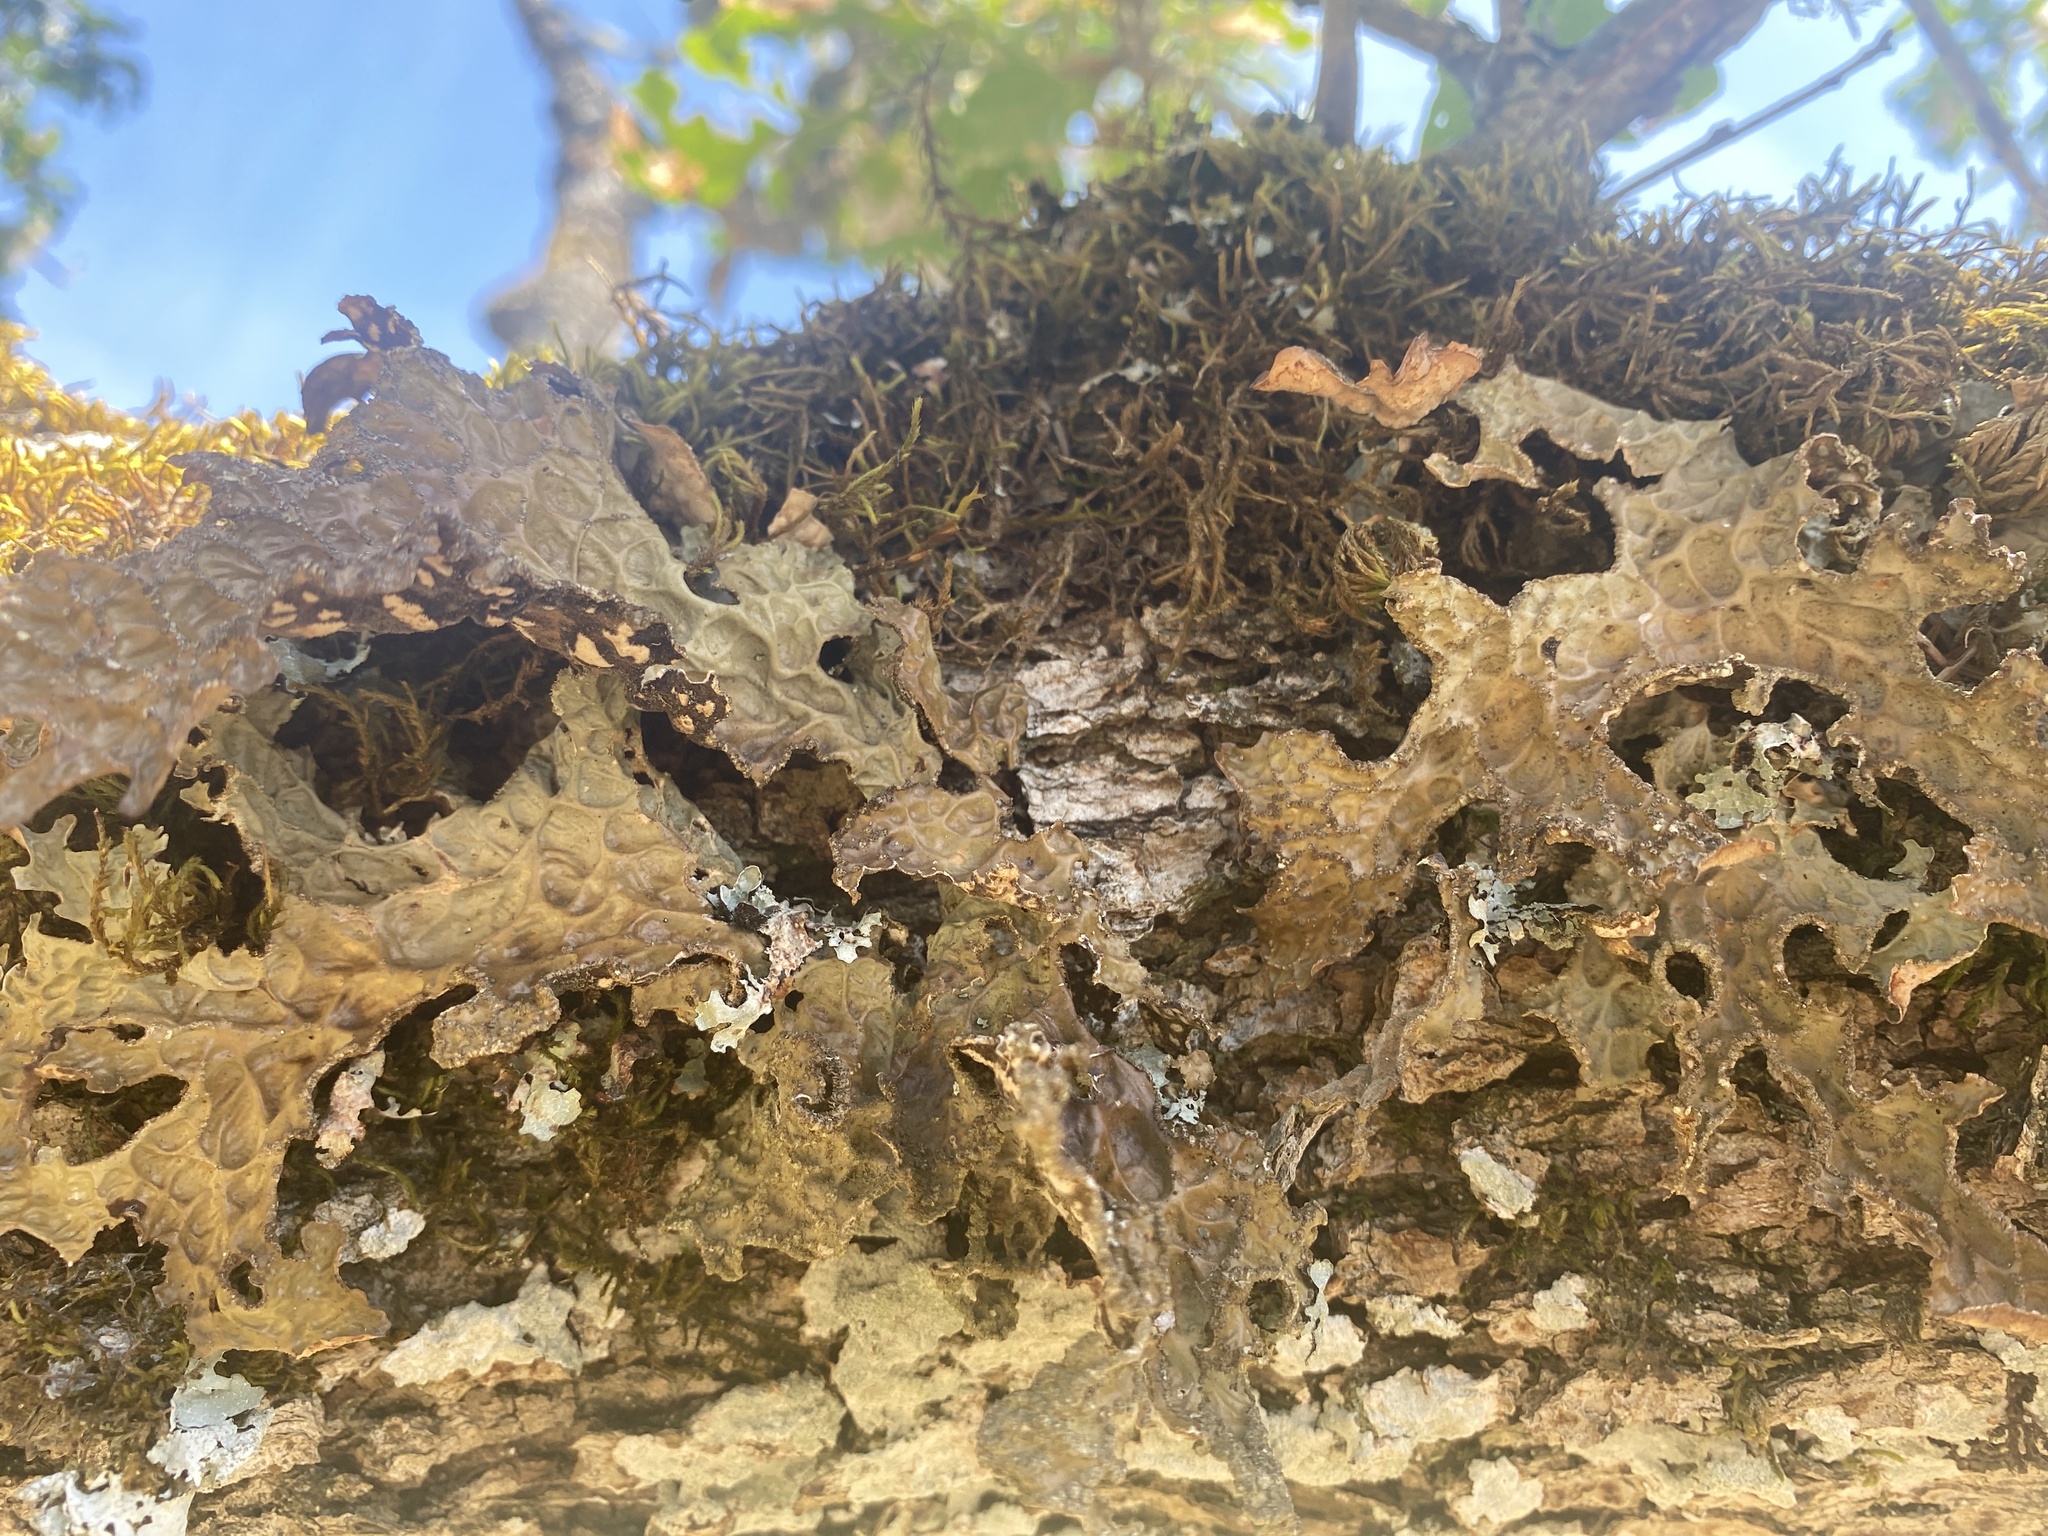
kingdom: Fungi
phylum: Ascomycota
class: Lecanoromycetes
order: Peltigerales
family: Lobariaceae
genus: Lobaria
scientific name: Lobaria pulmonaria
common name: Lungwort
